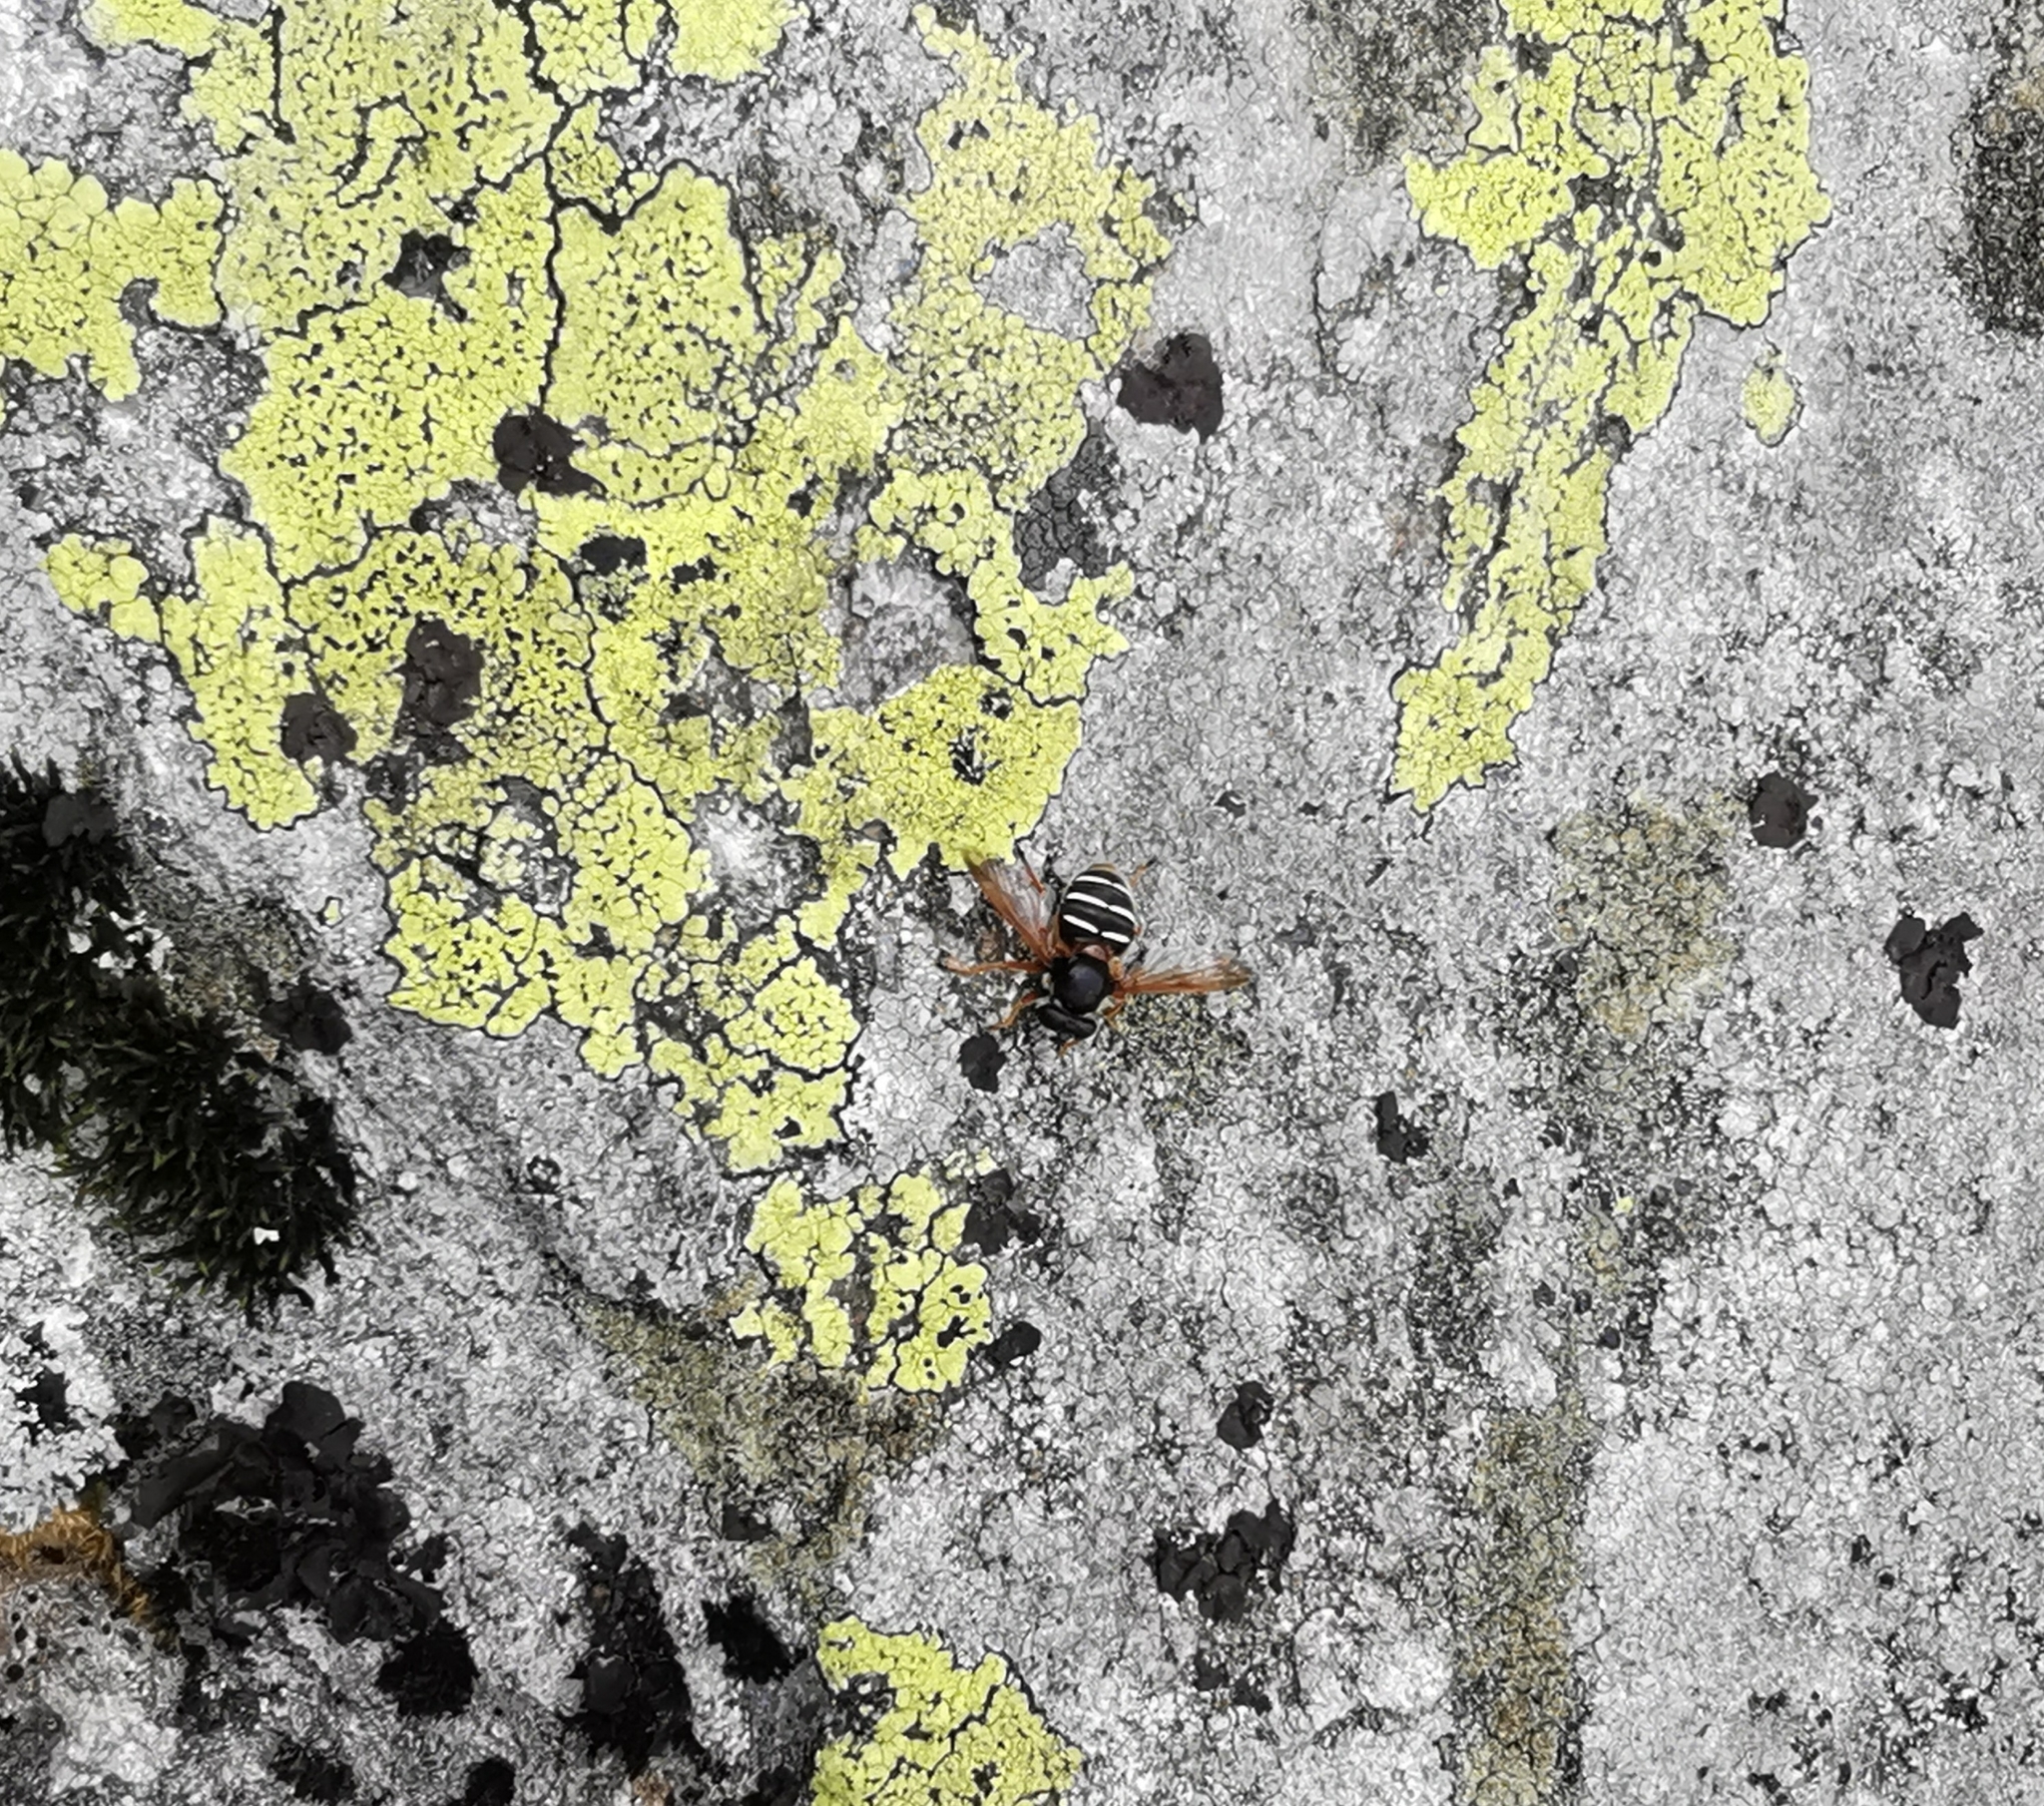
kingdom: Animalia
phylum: Arthropoda
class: Insecta
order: Diptera
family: Syrphidae
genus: Sericomyia
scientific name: Sericomyia lappona
